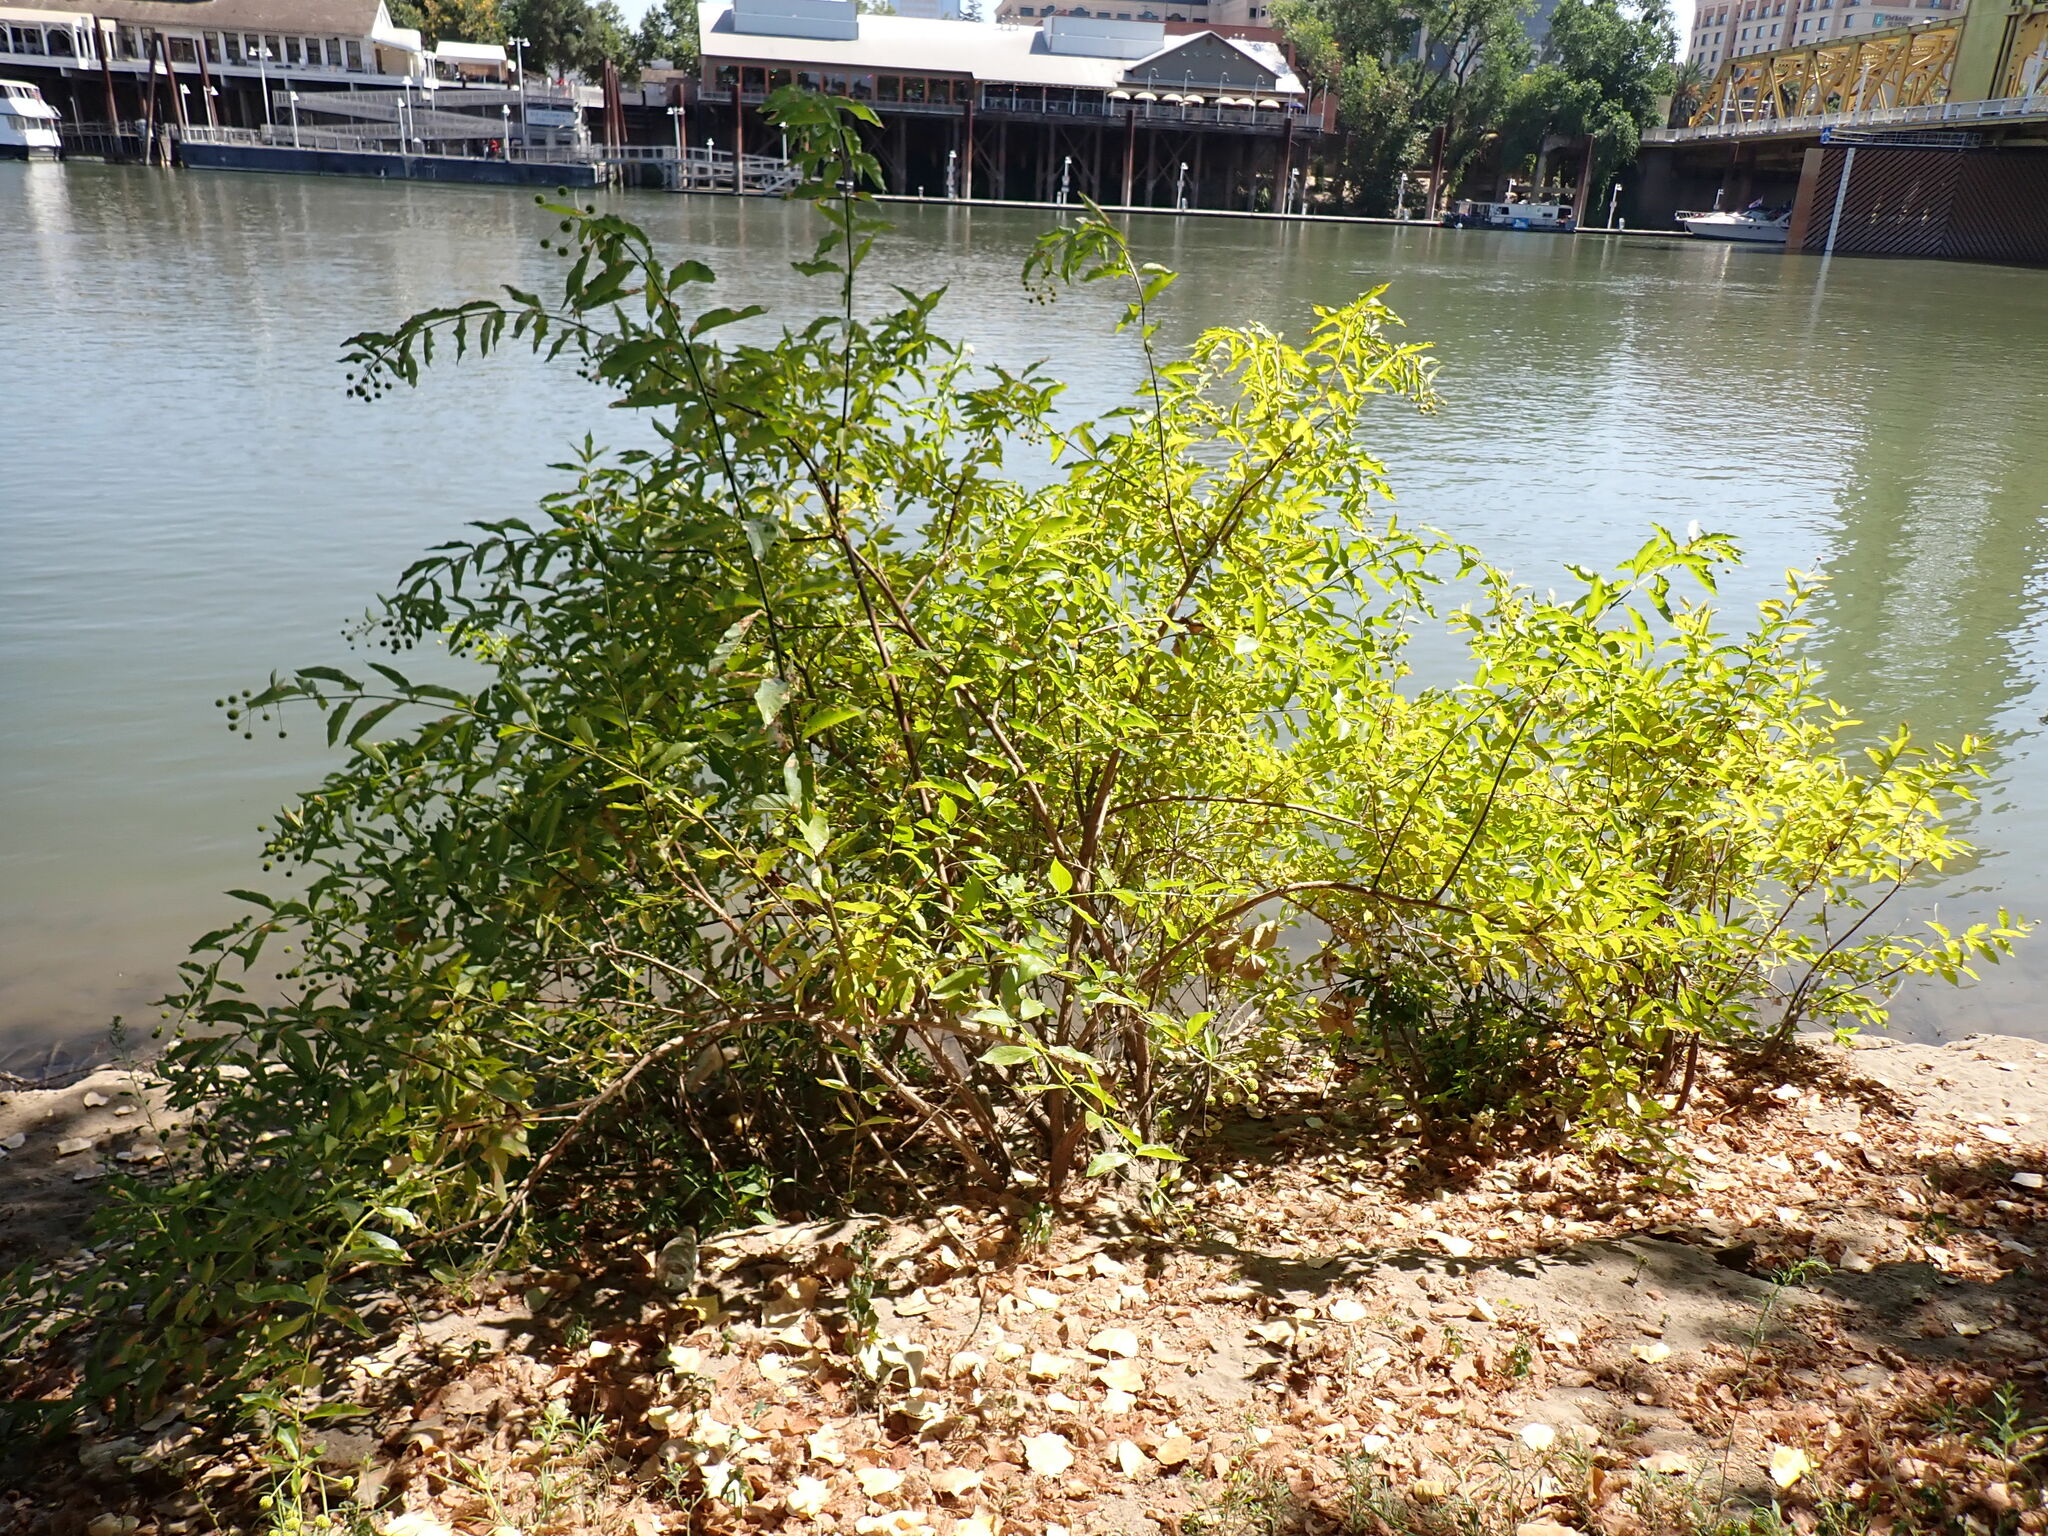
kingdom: Plantae
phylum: Tracheophyta
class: Magnoliopsida
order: Gentianales
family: Rubiaceae
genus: Cephalanthus
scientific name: Cephalanthus occidentalis
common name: Button-willow
